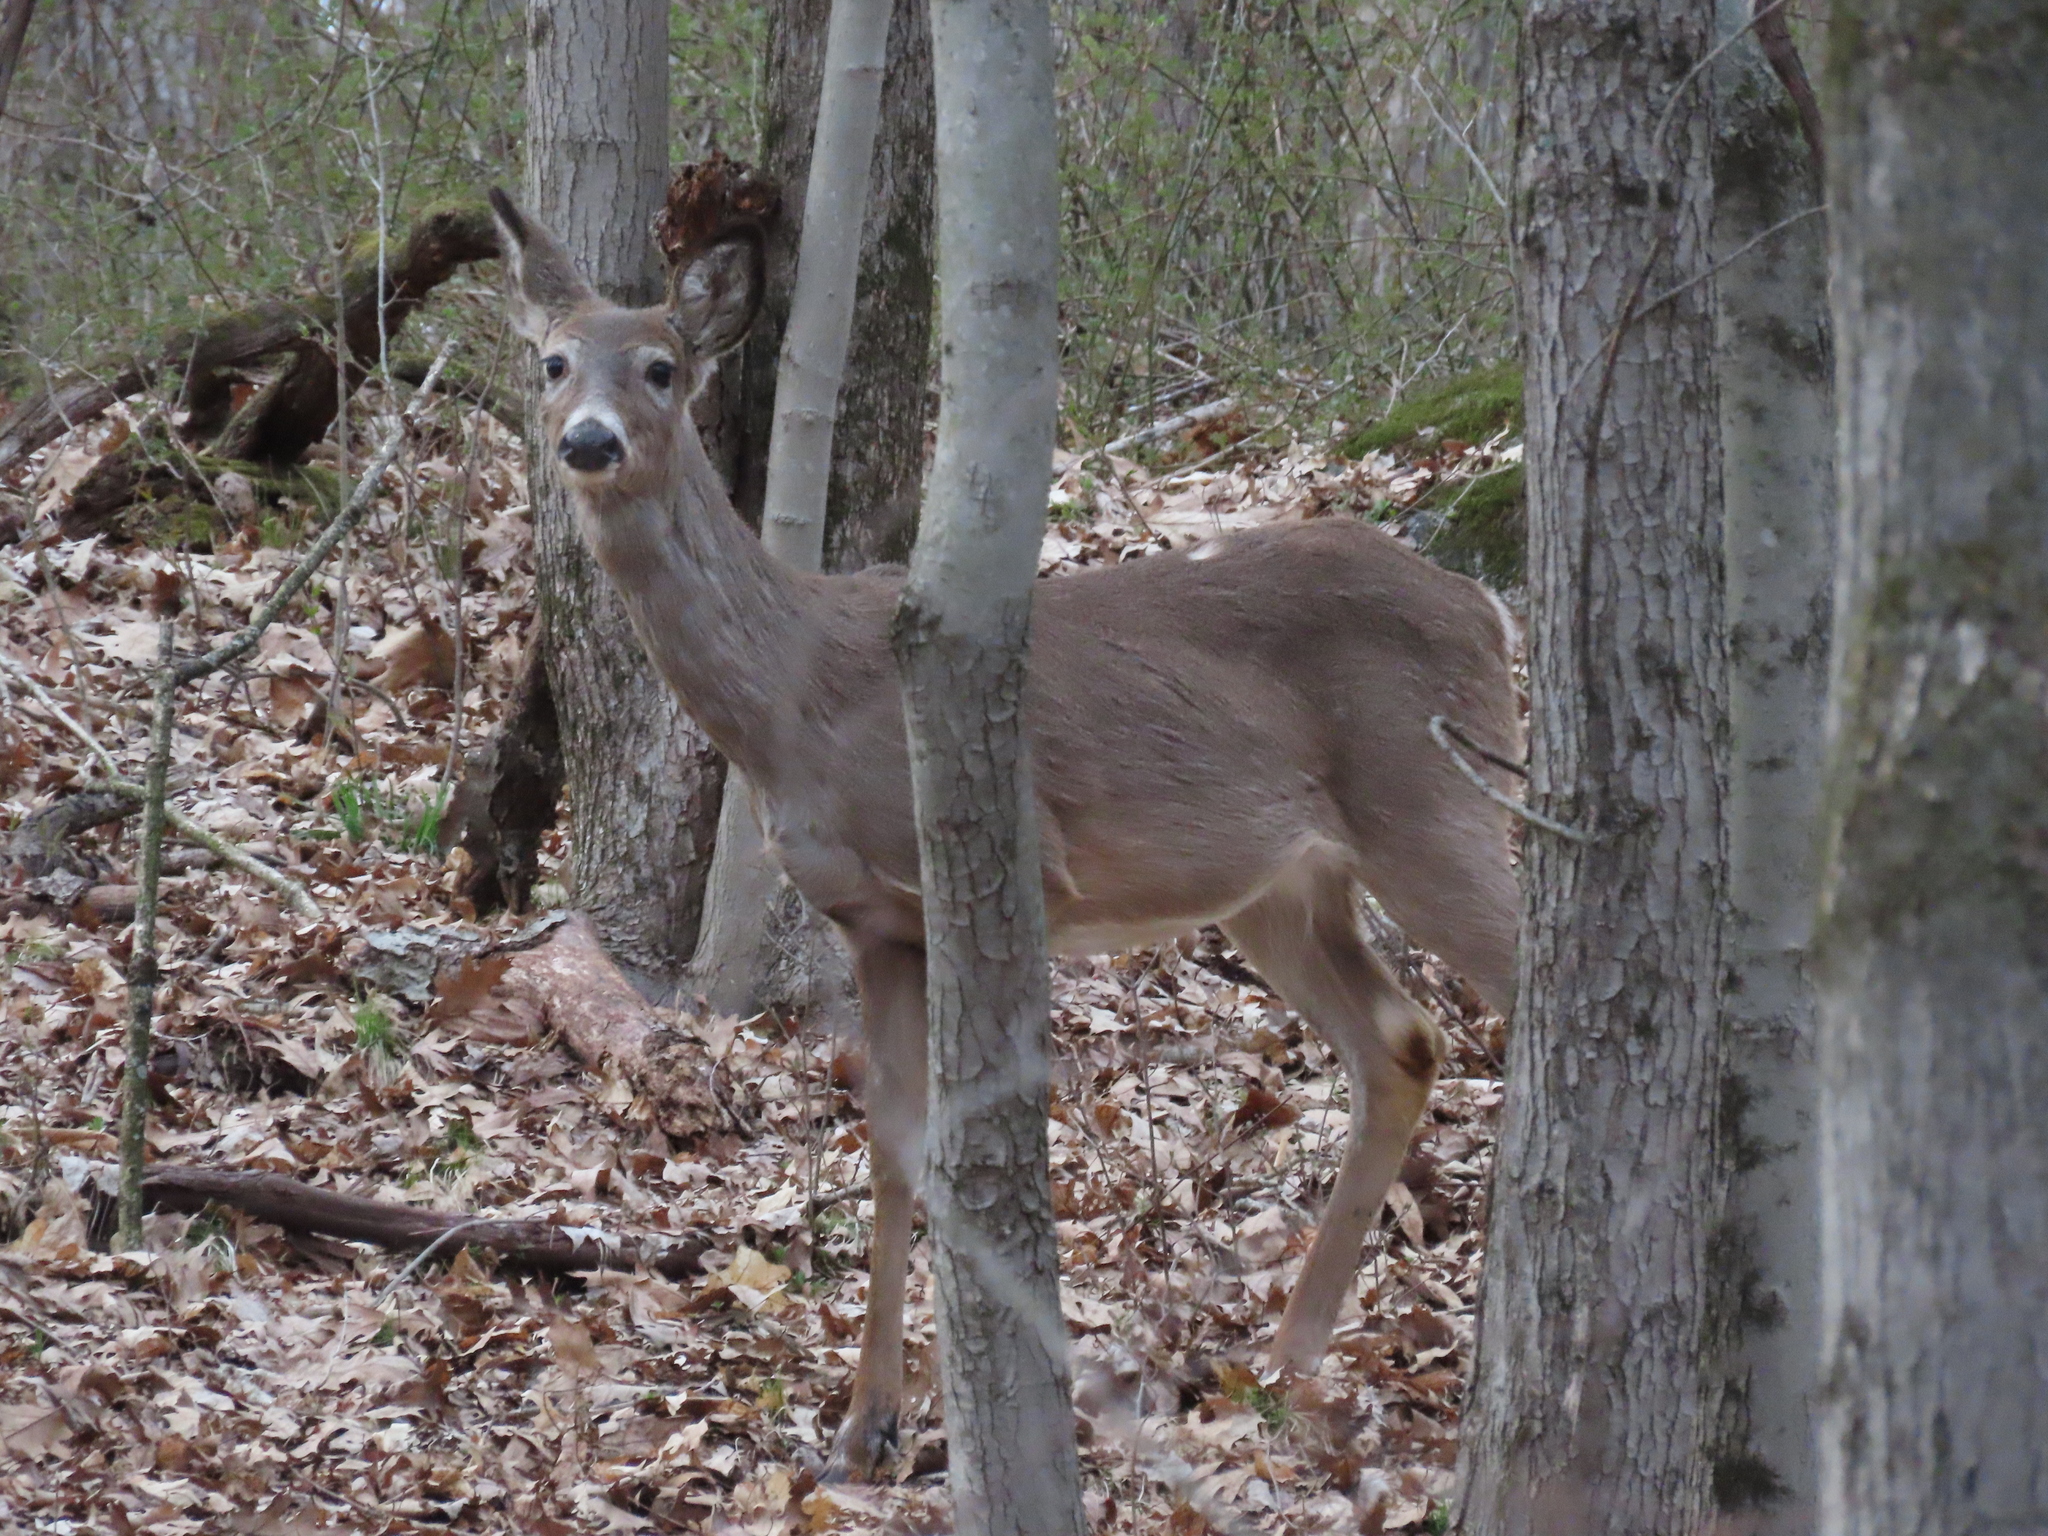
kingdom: Animalia
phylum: Chordata
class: Mammalia
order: Artiodactyla
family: Cervidae
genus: Odocoileus
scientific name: Odocoileus virginianus
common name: White-tailed deer
